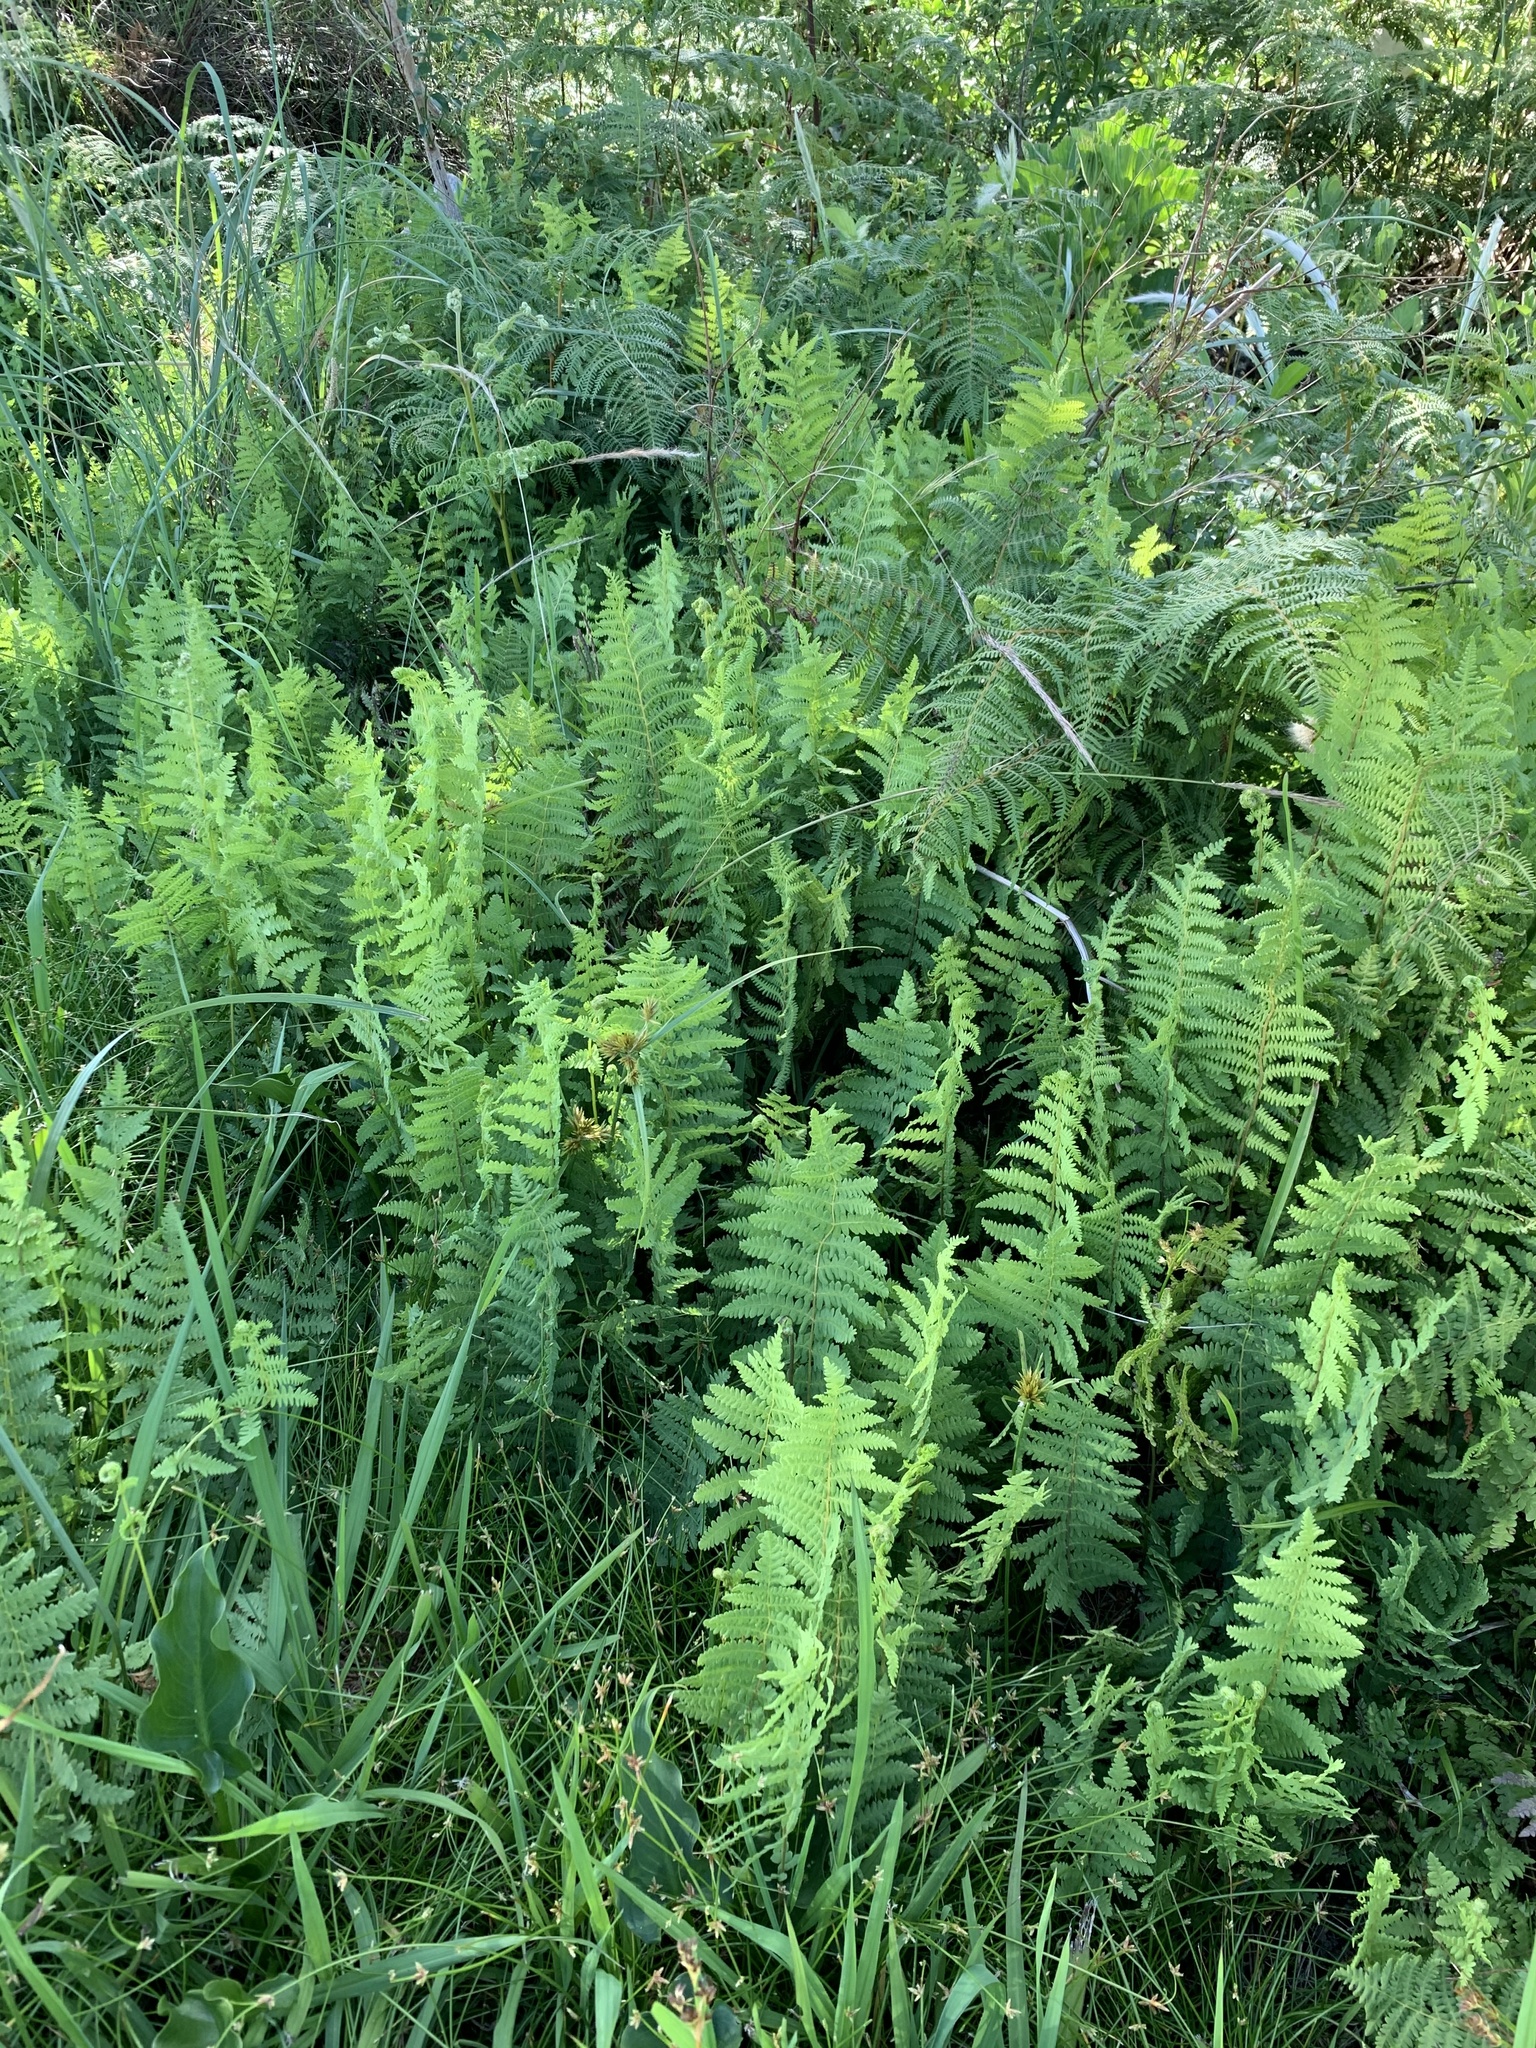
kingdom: Plantae
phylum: Tracheophyta
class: Polypodiopsida
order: Polypodiales
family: Thelypteridaceae
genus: Thelypteris
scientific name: Thelypteris confluens
